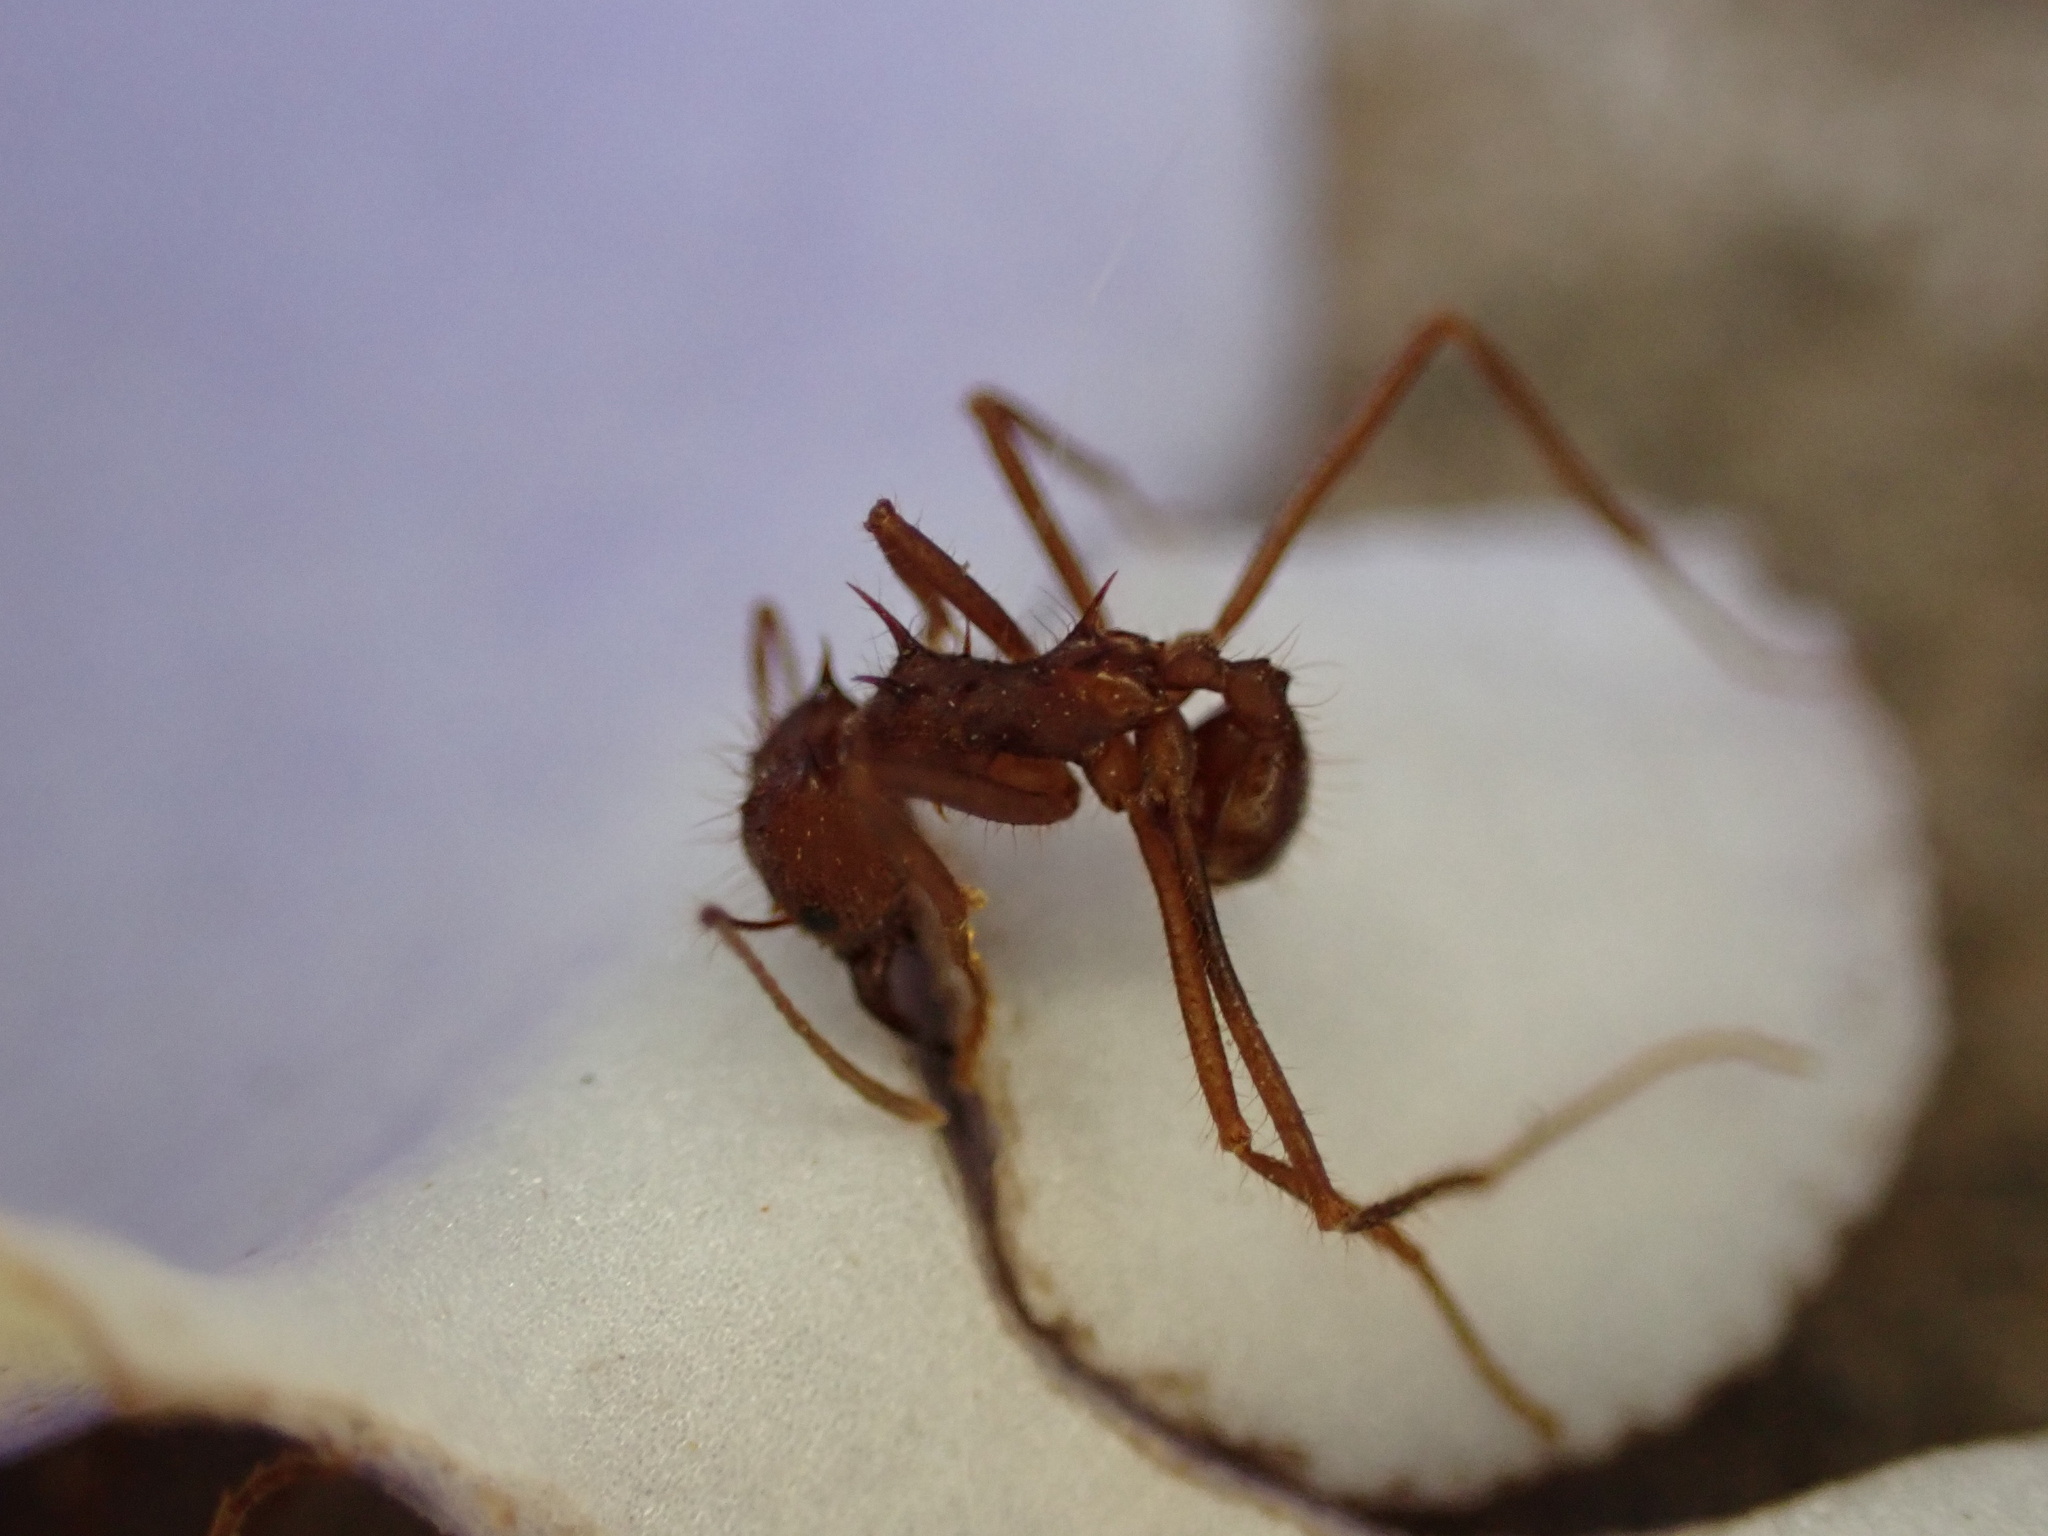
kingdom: Animalia
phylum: Arthropoda
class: Insecta
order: Hymenoptera
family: Formicidae
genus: Atta
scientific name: Atta mexicana
